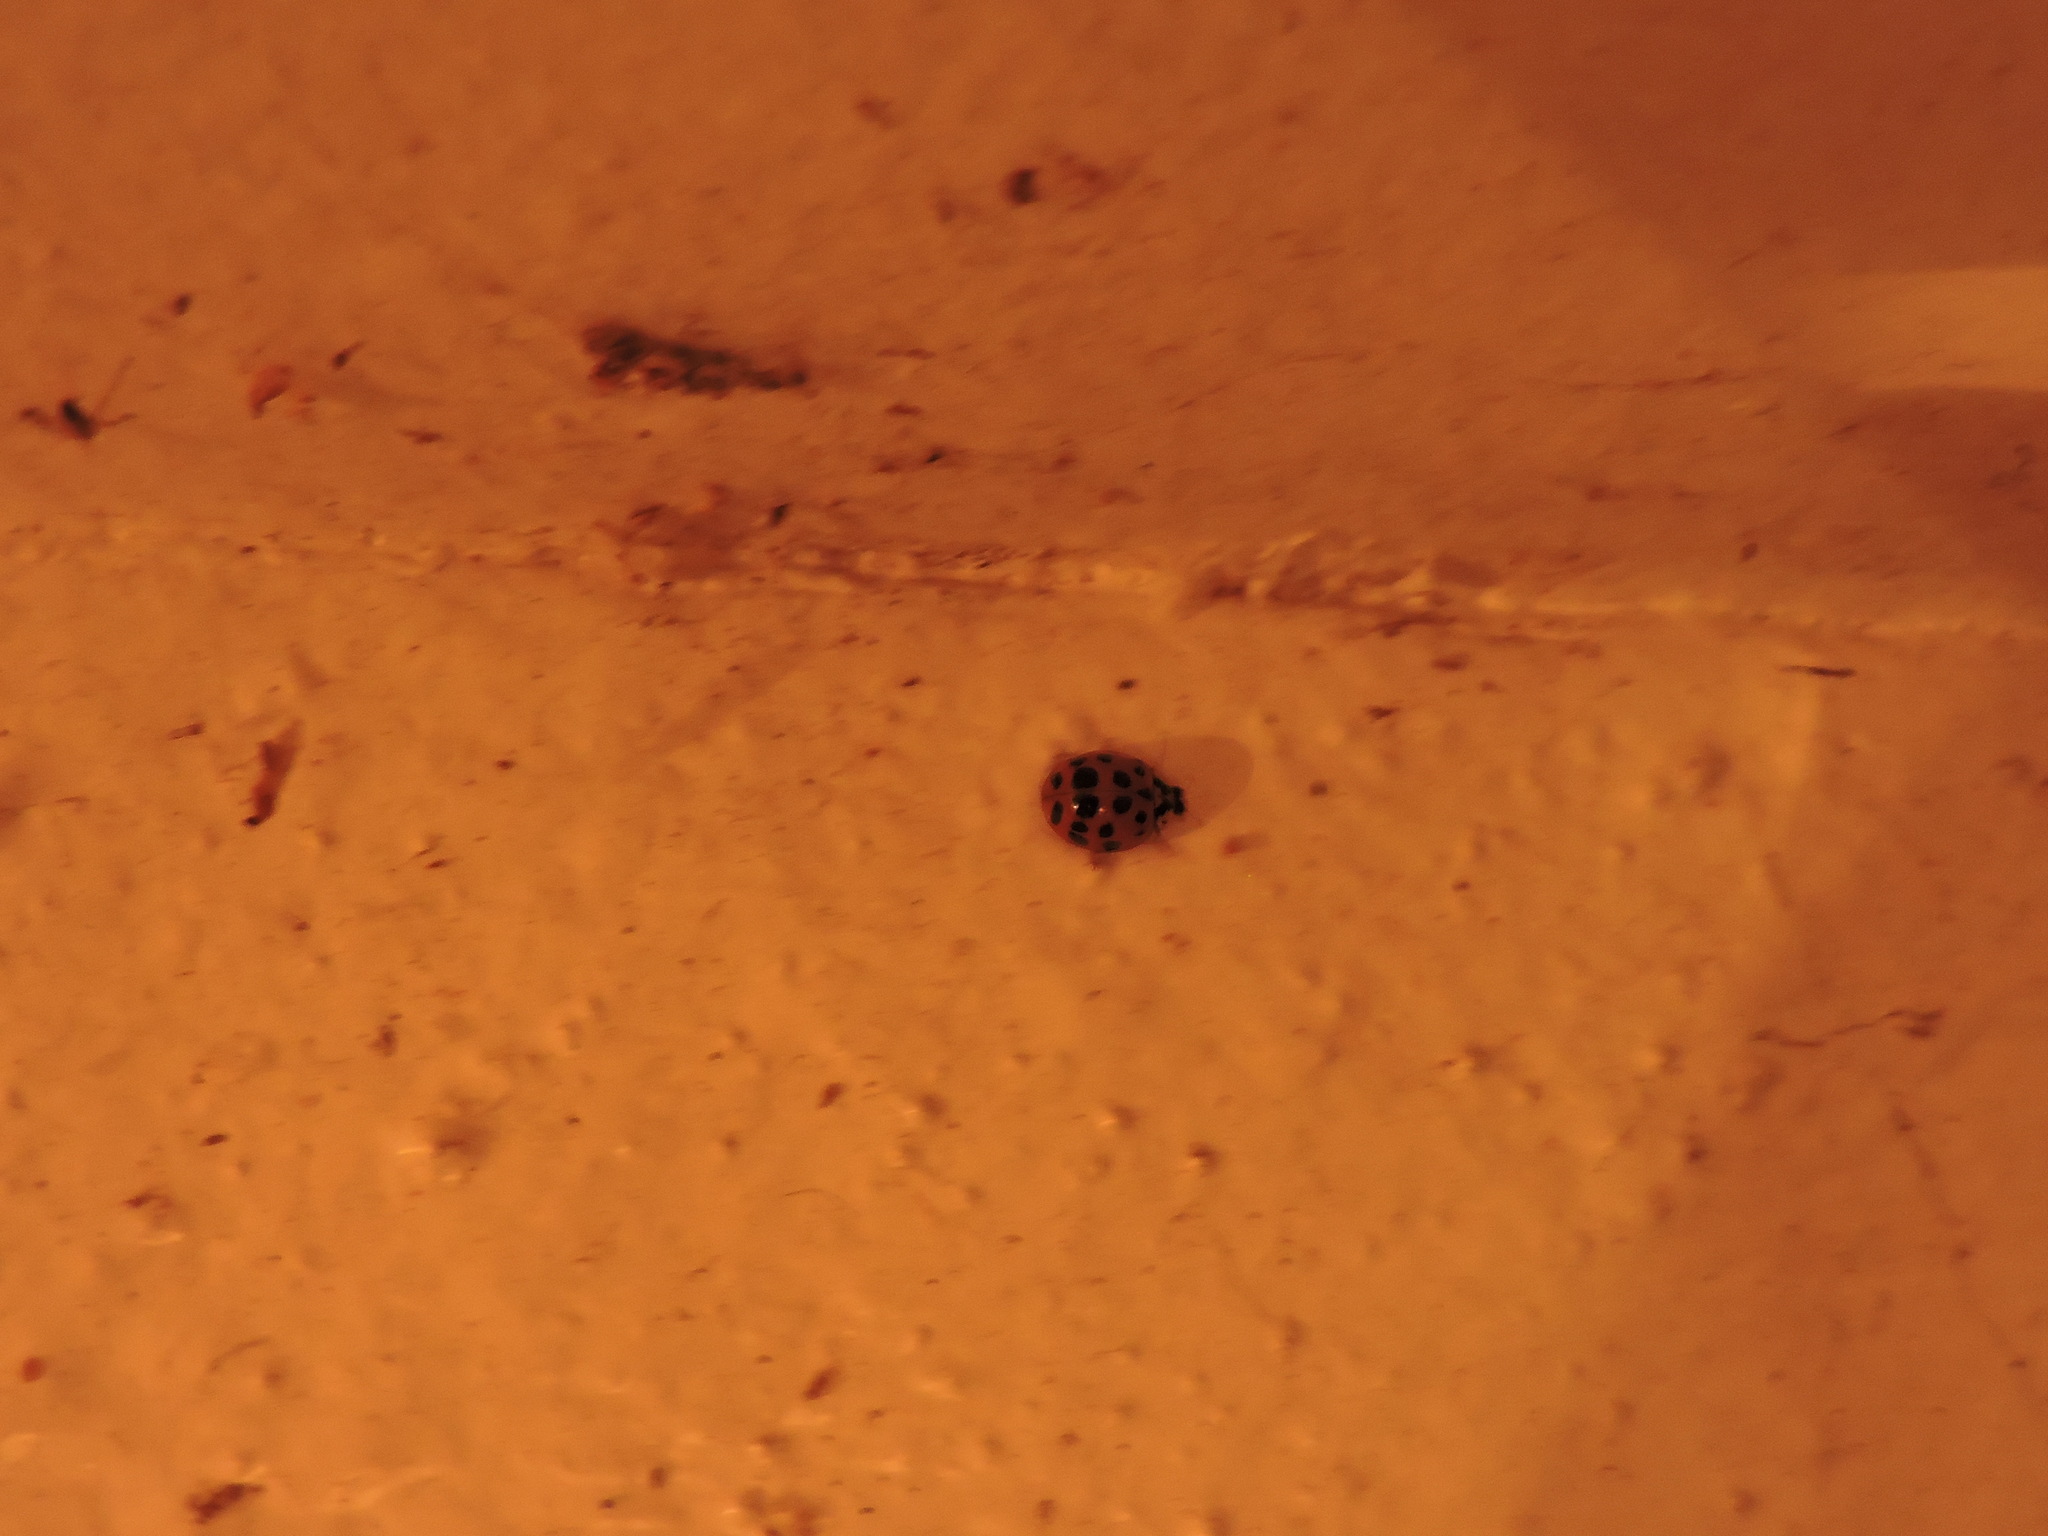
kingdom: Animalia
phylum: Arthropoda
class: Insecta
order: Coleoptera
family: Coccinellidae
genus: Harmonia
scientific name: Harmonia axyridis
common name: Harlequin ladybird
